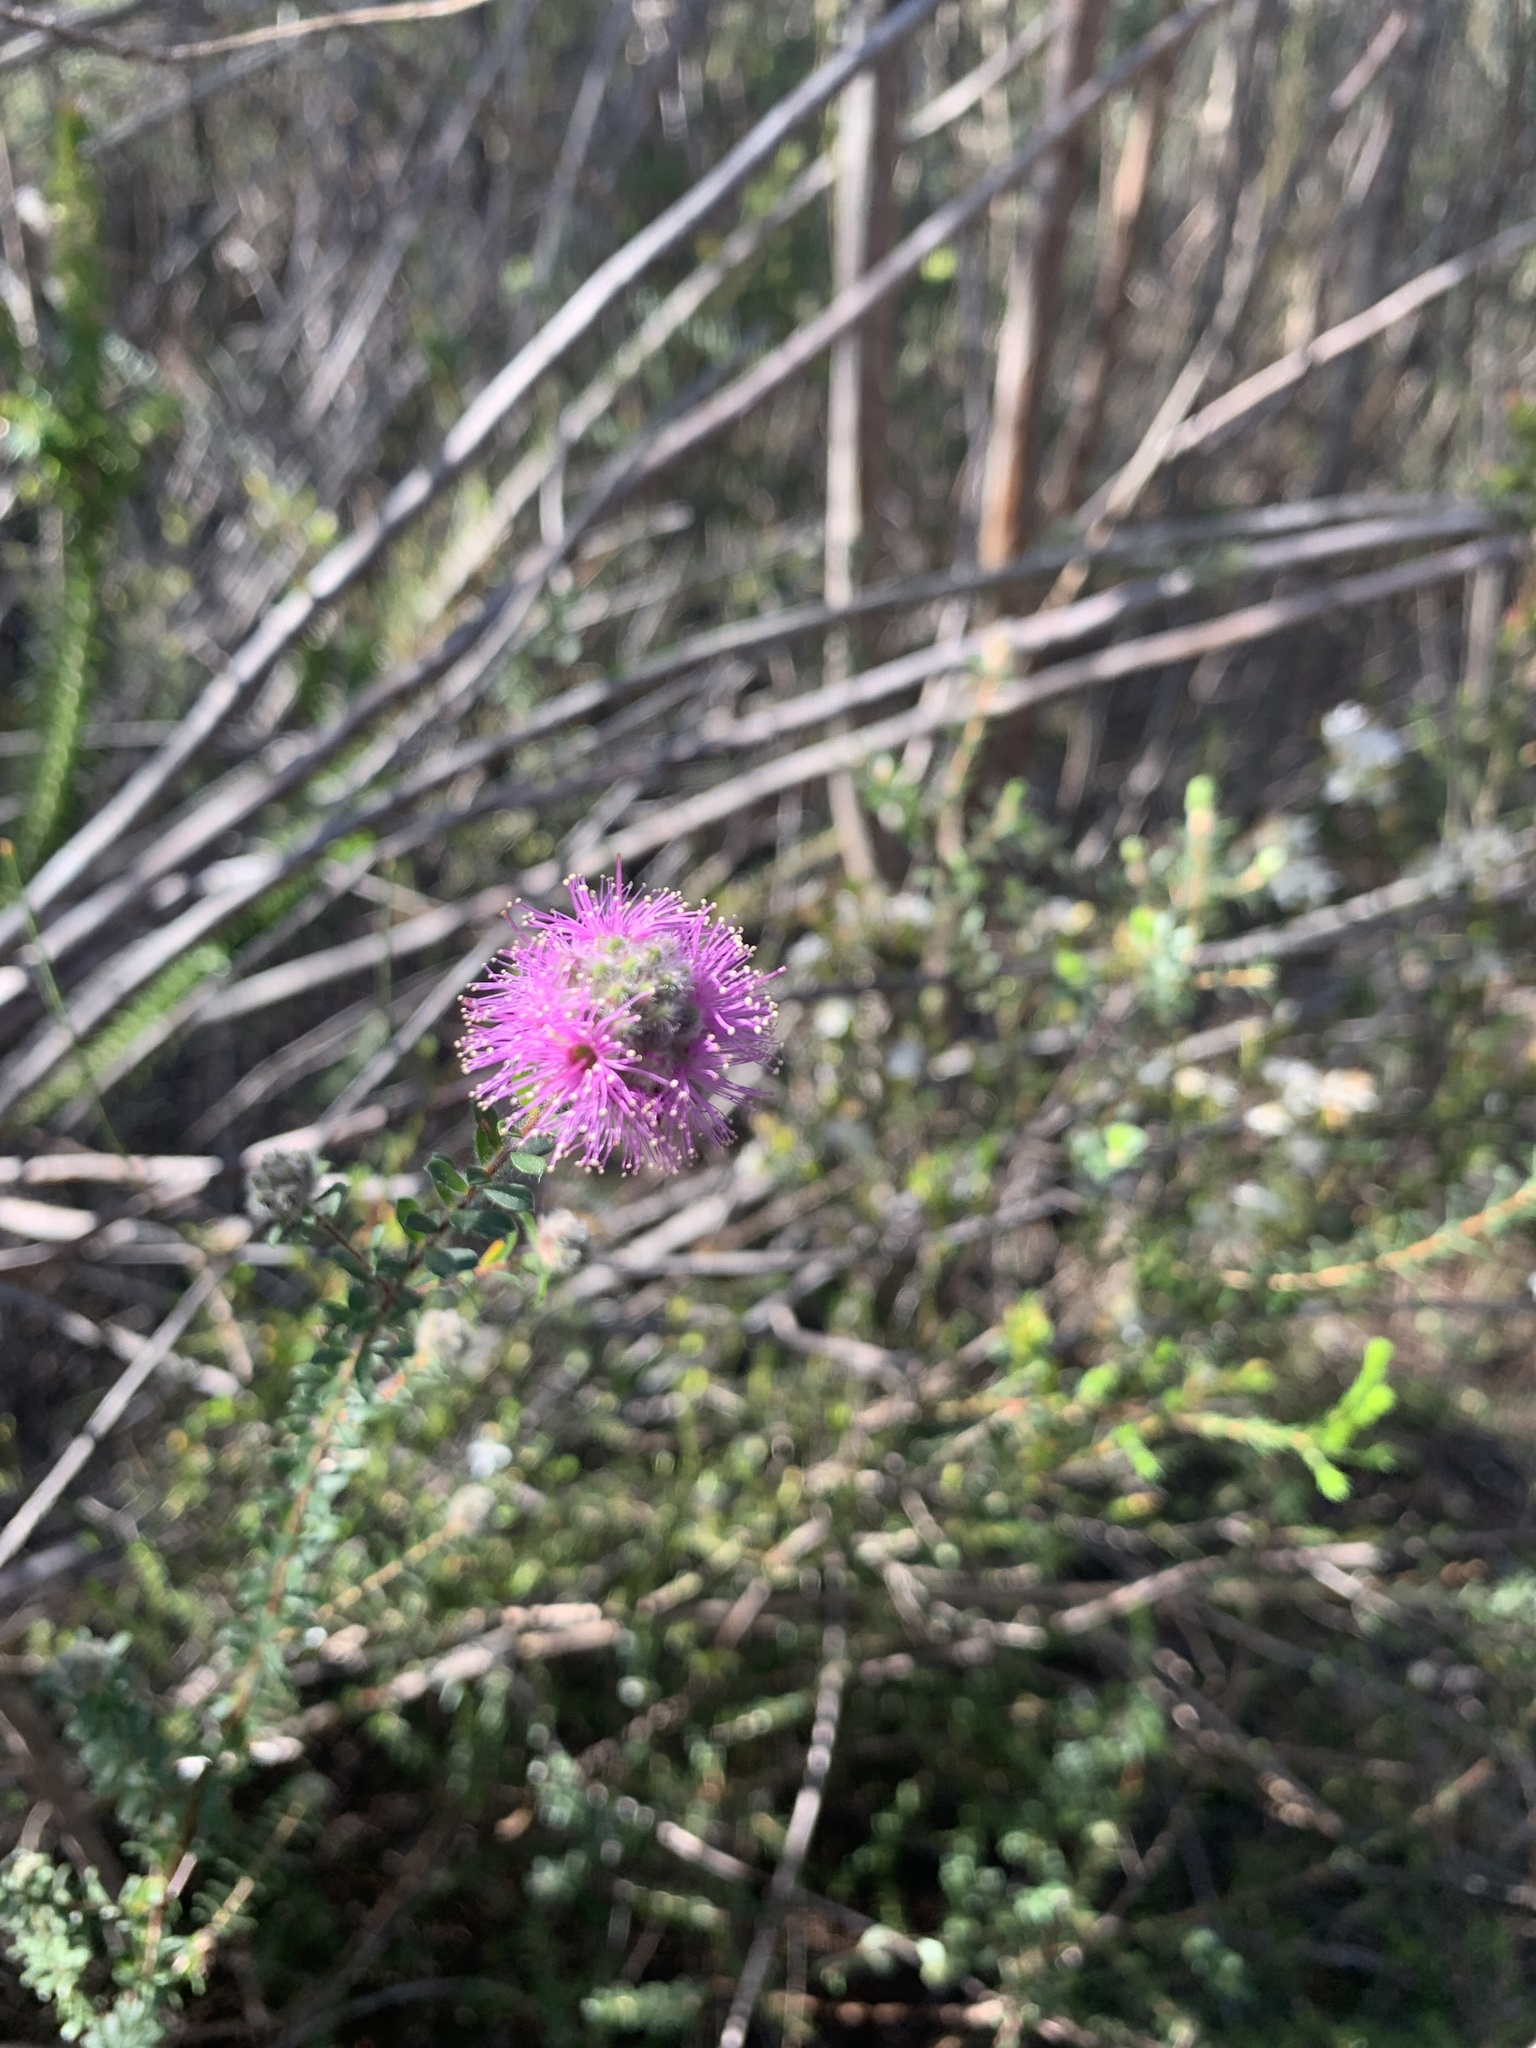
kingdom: Plantae
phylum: Tracheophyta
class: Magnoliopsida
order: Myrtales
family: Myrtaceae
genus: Kunzea
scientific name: Kunzea capitata
